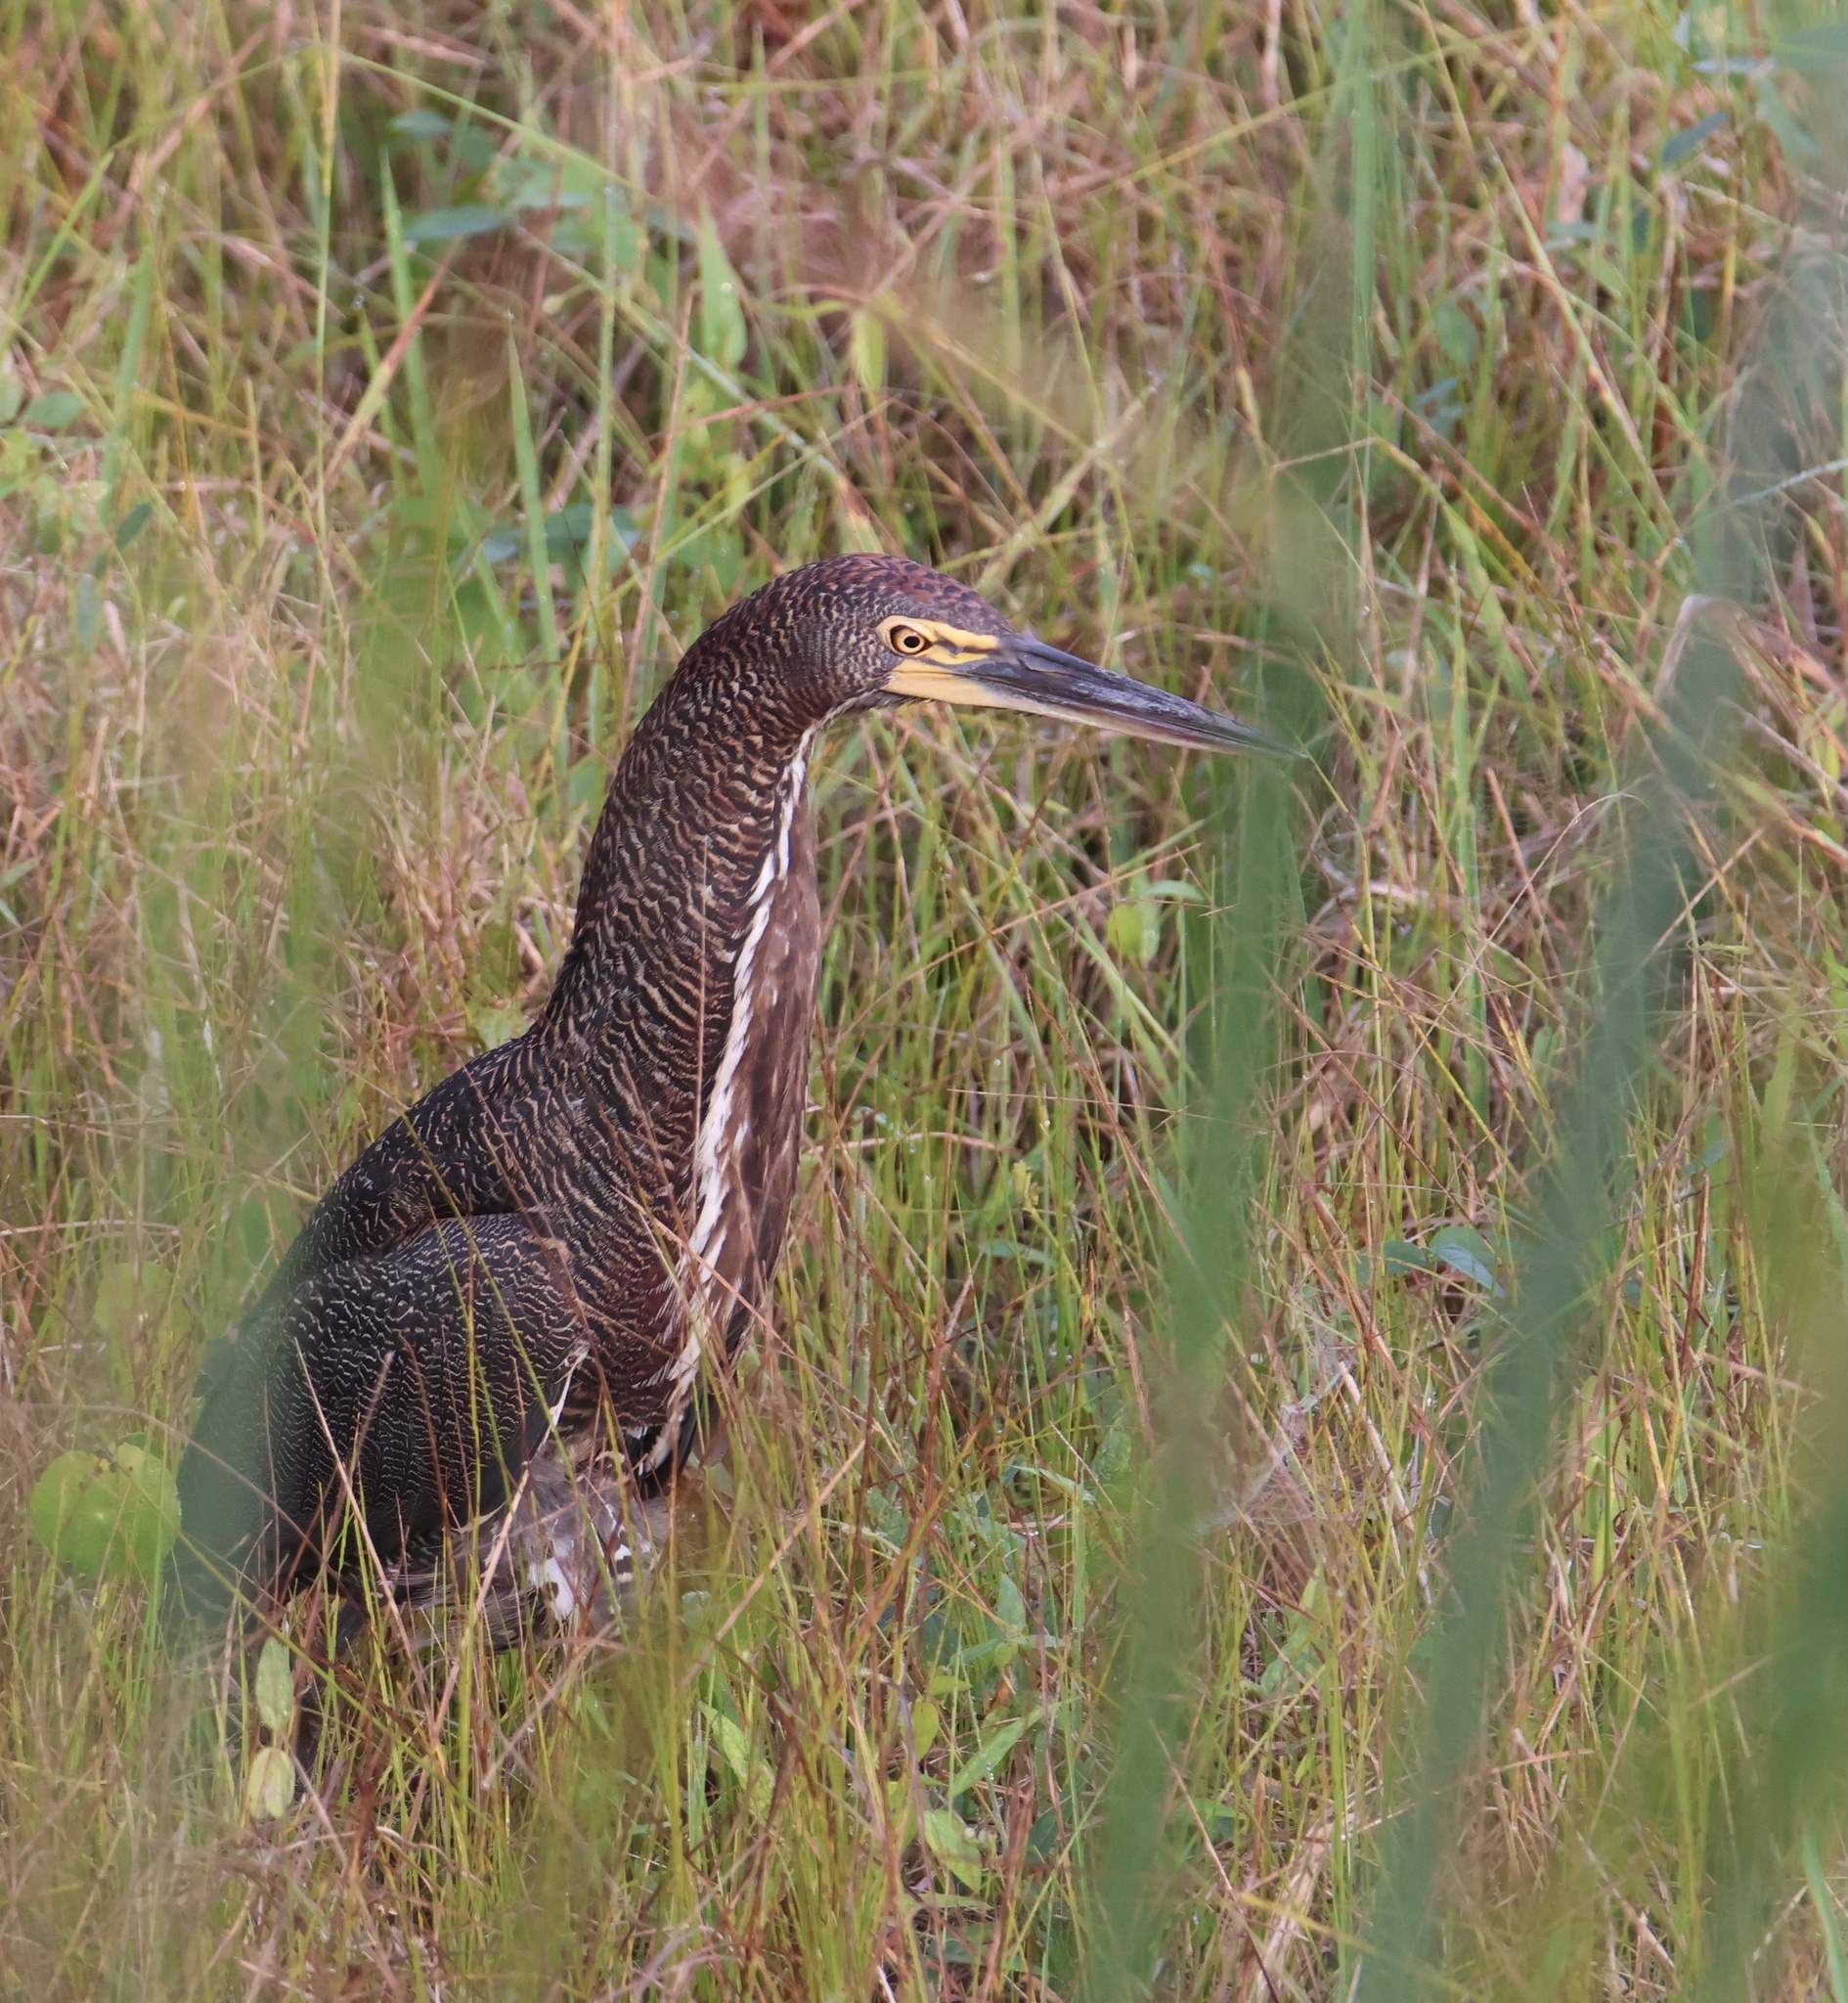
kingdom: Animalia
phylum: Chordata
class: Aves
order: Pelecaniformes
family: Ardeidae
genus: Tigrisoma
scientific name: Tigrisoma lineatum
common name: Rufescent tiger-heron
